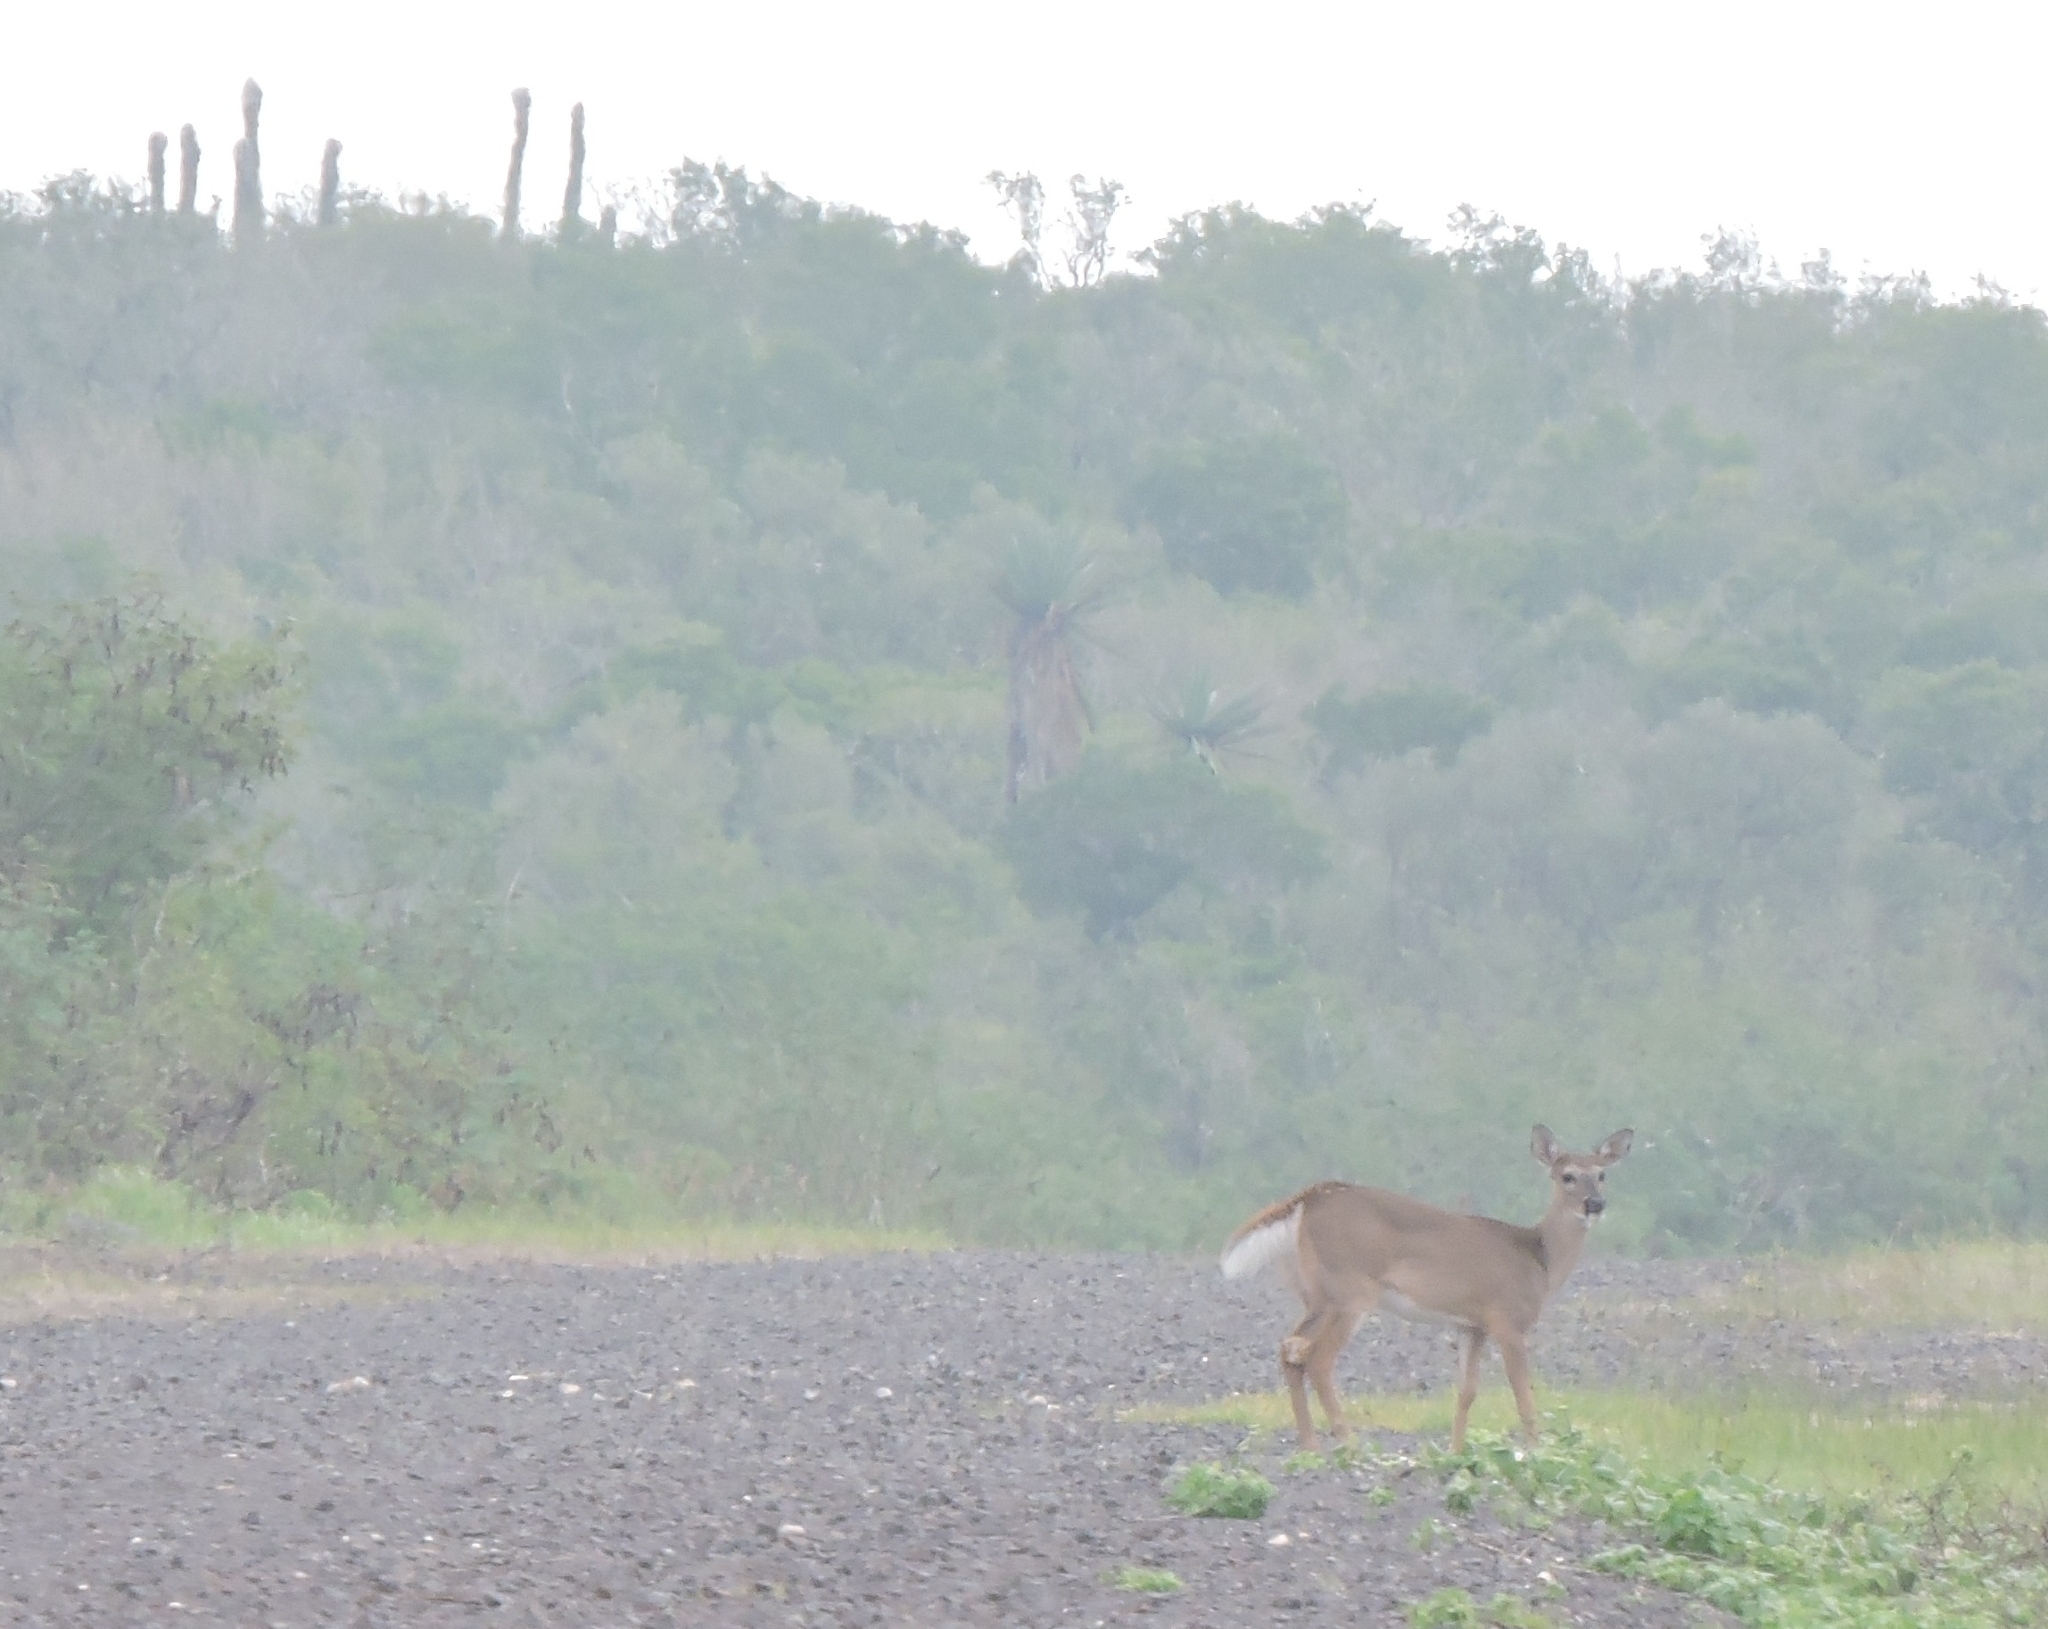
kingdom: Animalia
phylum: Chordata
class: Mammalia
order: Artiodactyla
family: Cervidae
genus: Odocoileus
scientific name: Odocoileus virginianus
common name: White-tailed deer
